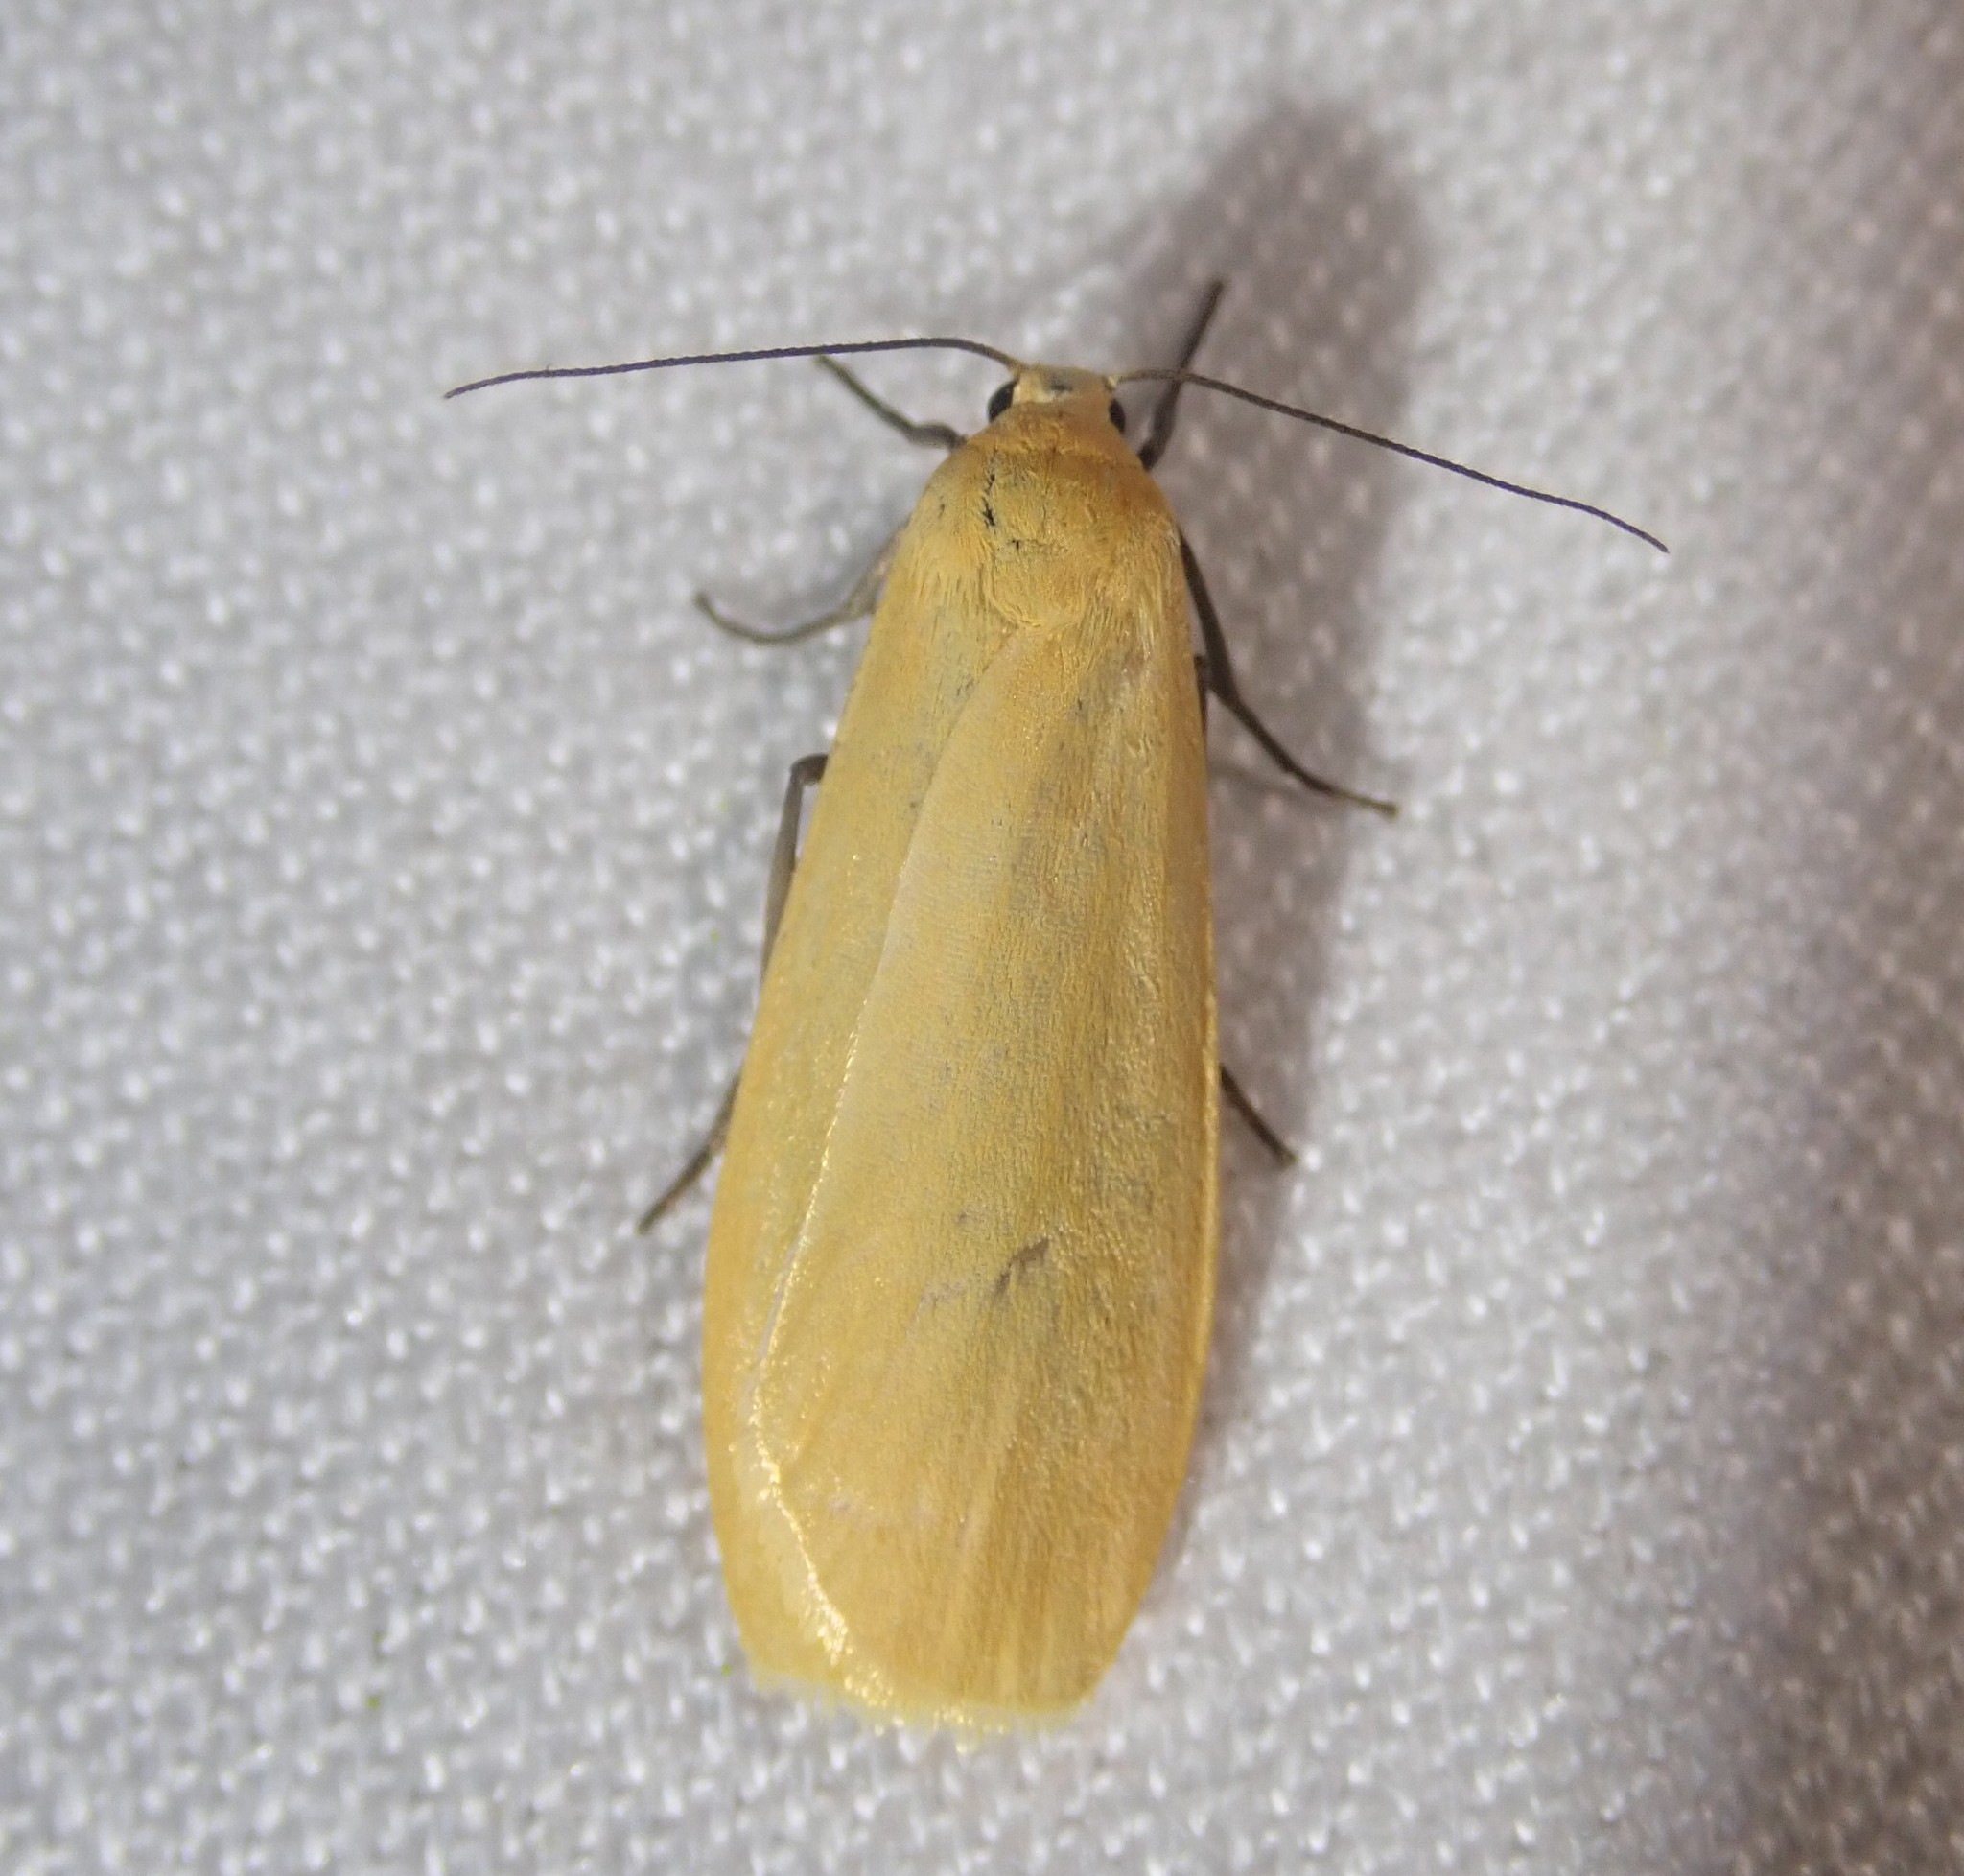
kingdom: Animalia
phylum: Arthropoda
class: Insecta
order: Lepidoptera
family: Erebidae
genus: Wittia
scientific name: Wittia sororcula
